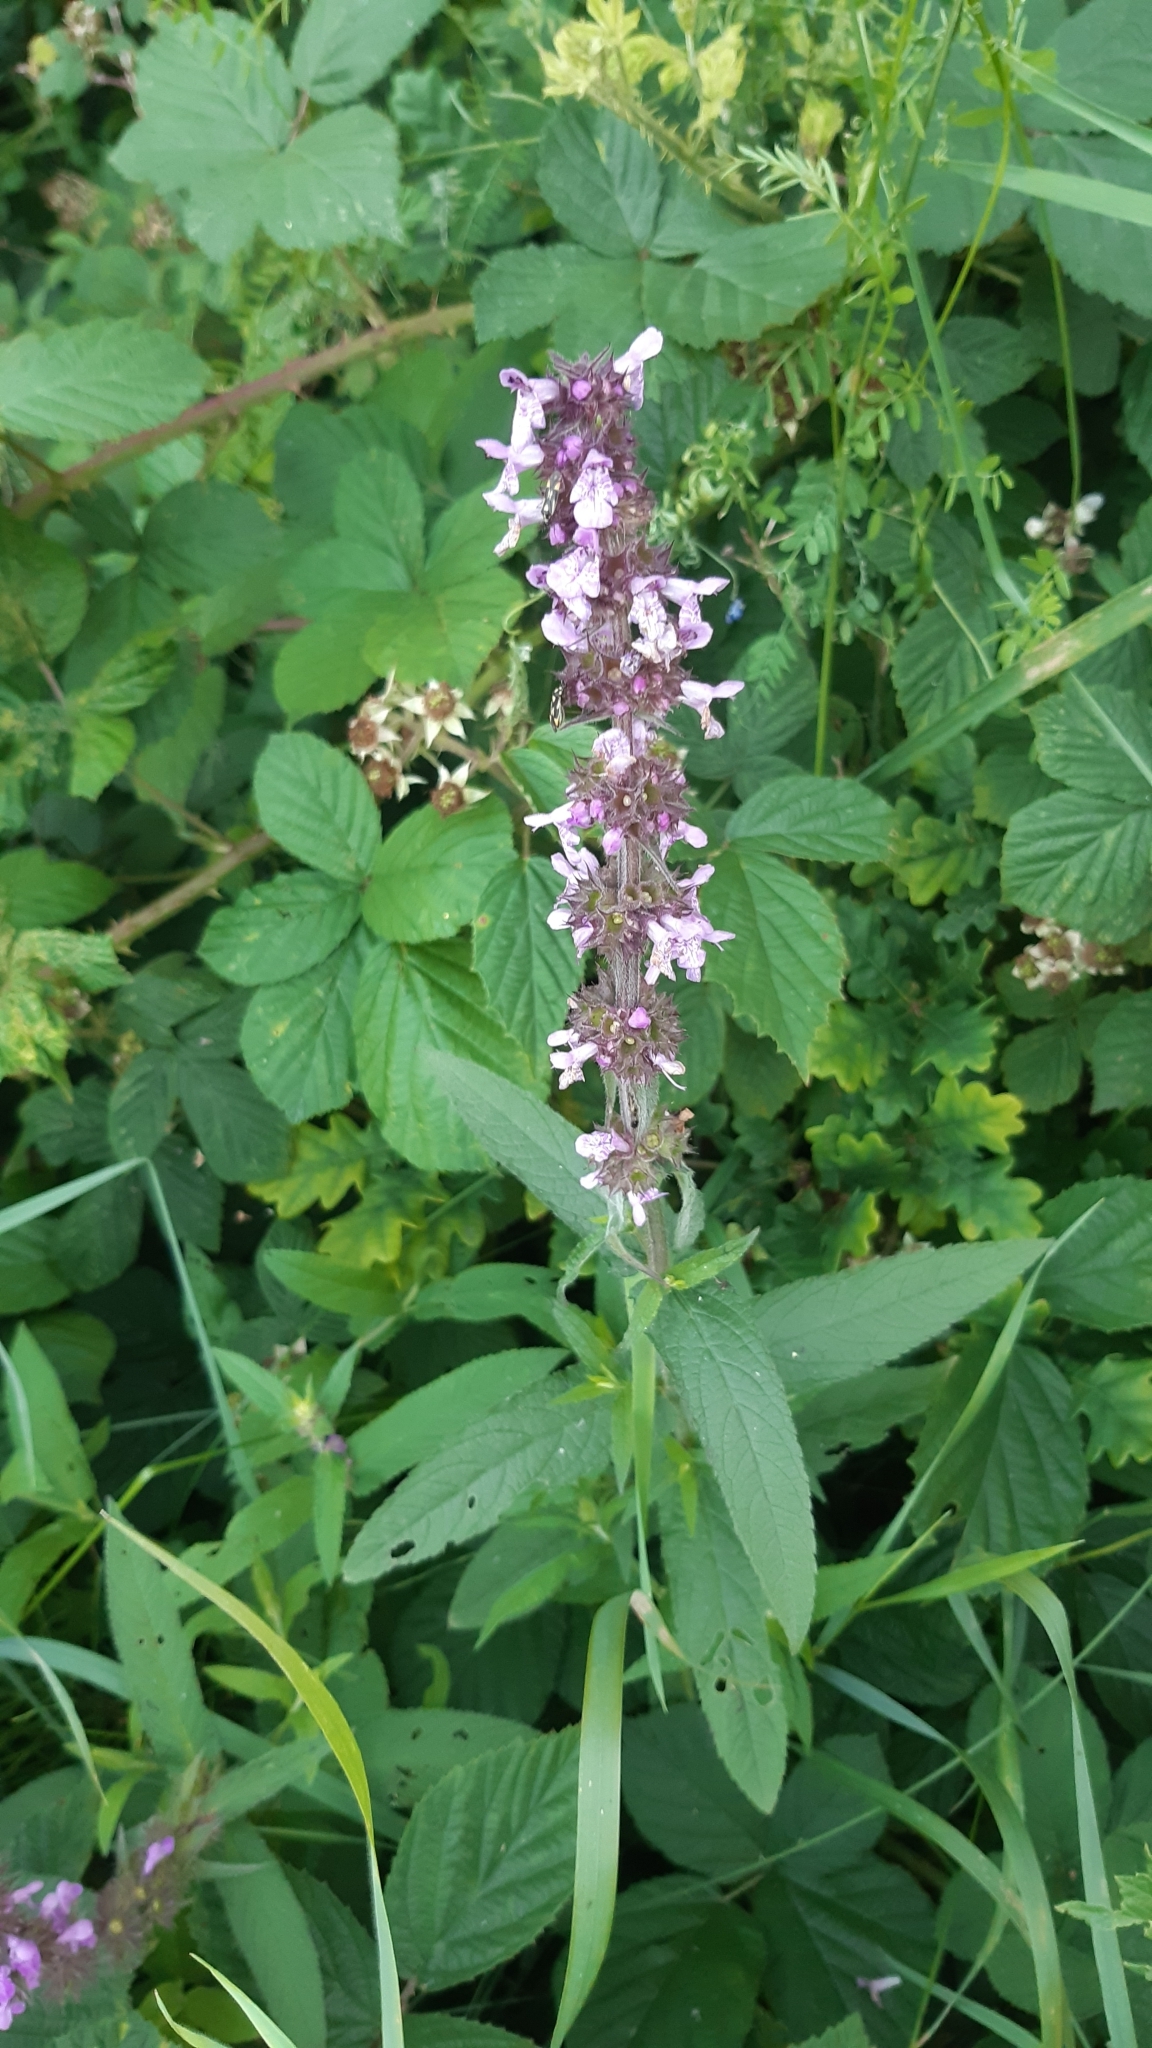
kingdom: Plantae
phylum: Tracheophyta
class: Magnoliopsida
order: Lamiales
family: Lamiaceae
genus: Stachys
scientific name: Stachys palustris
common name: Marsh woundwort
